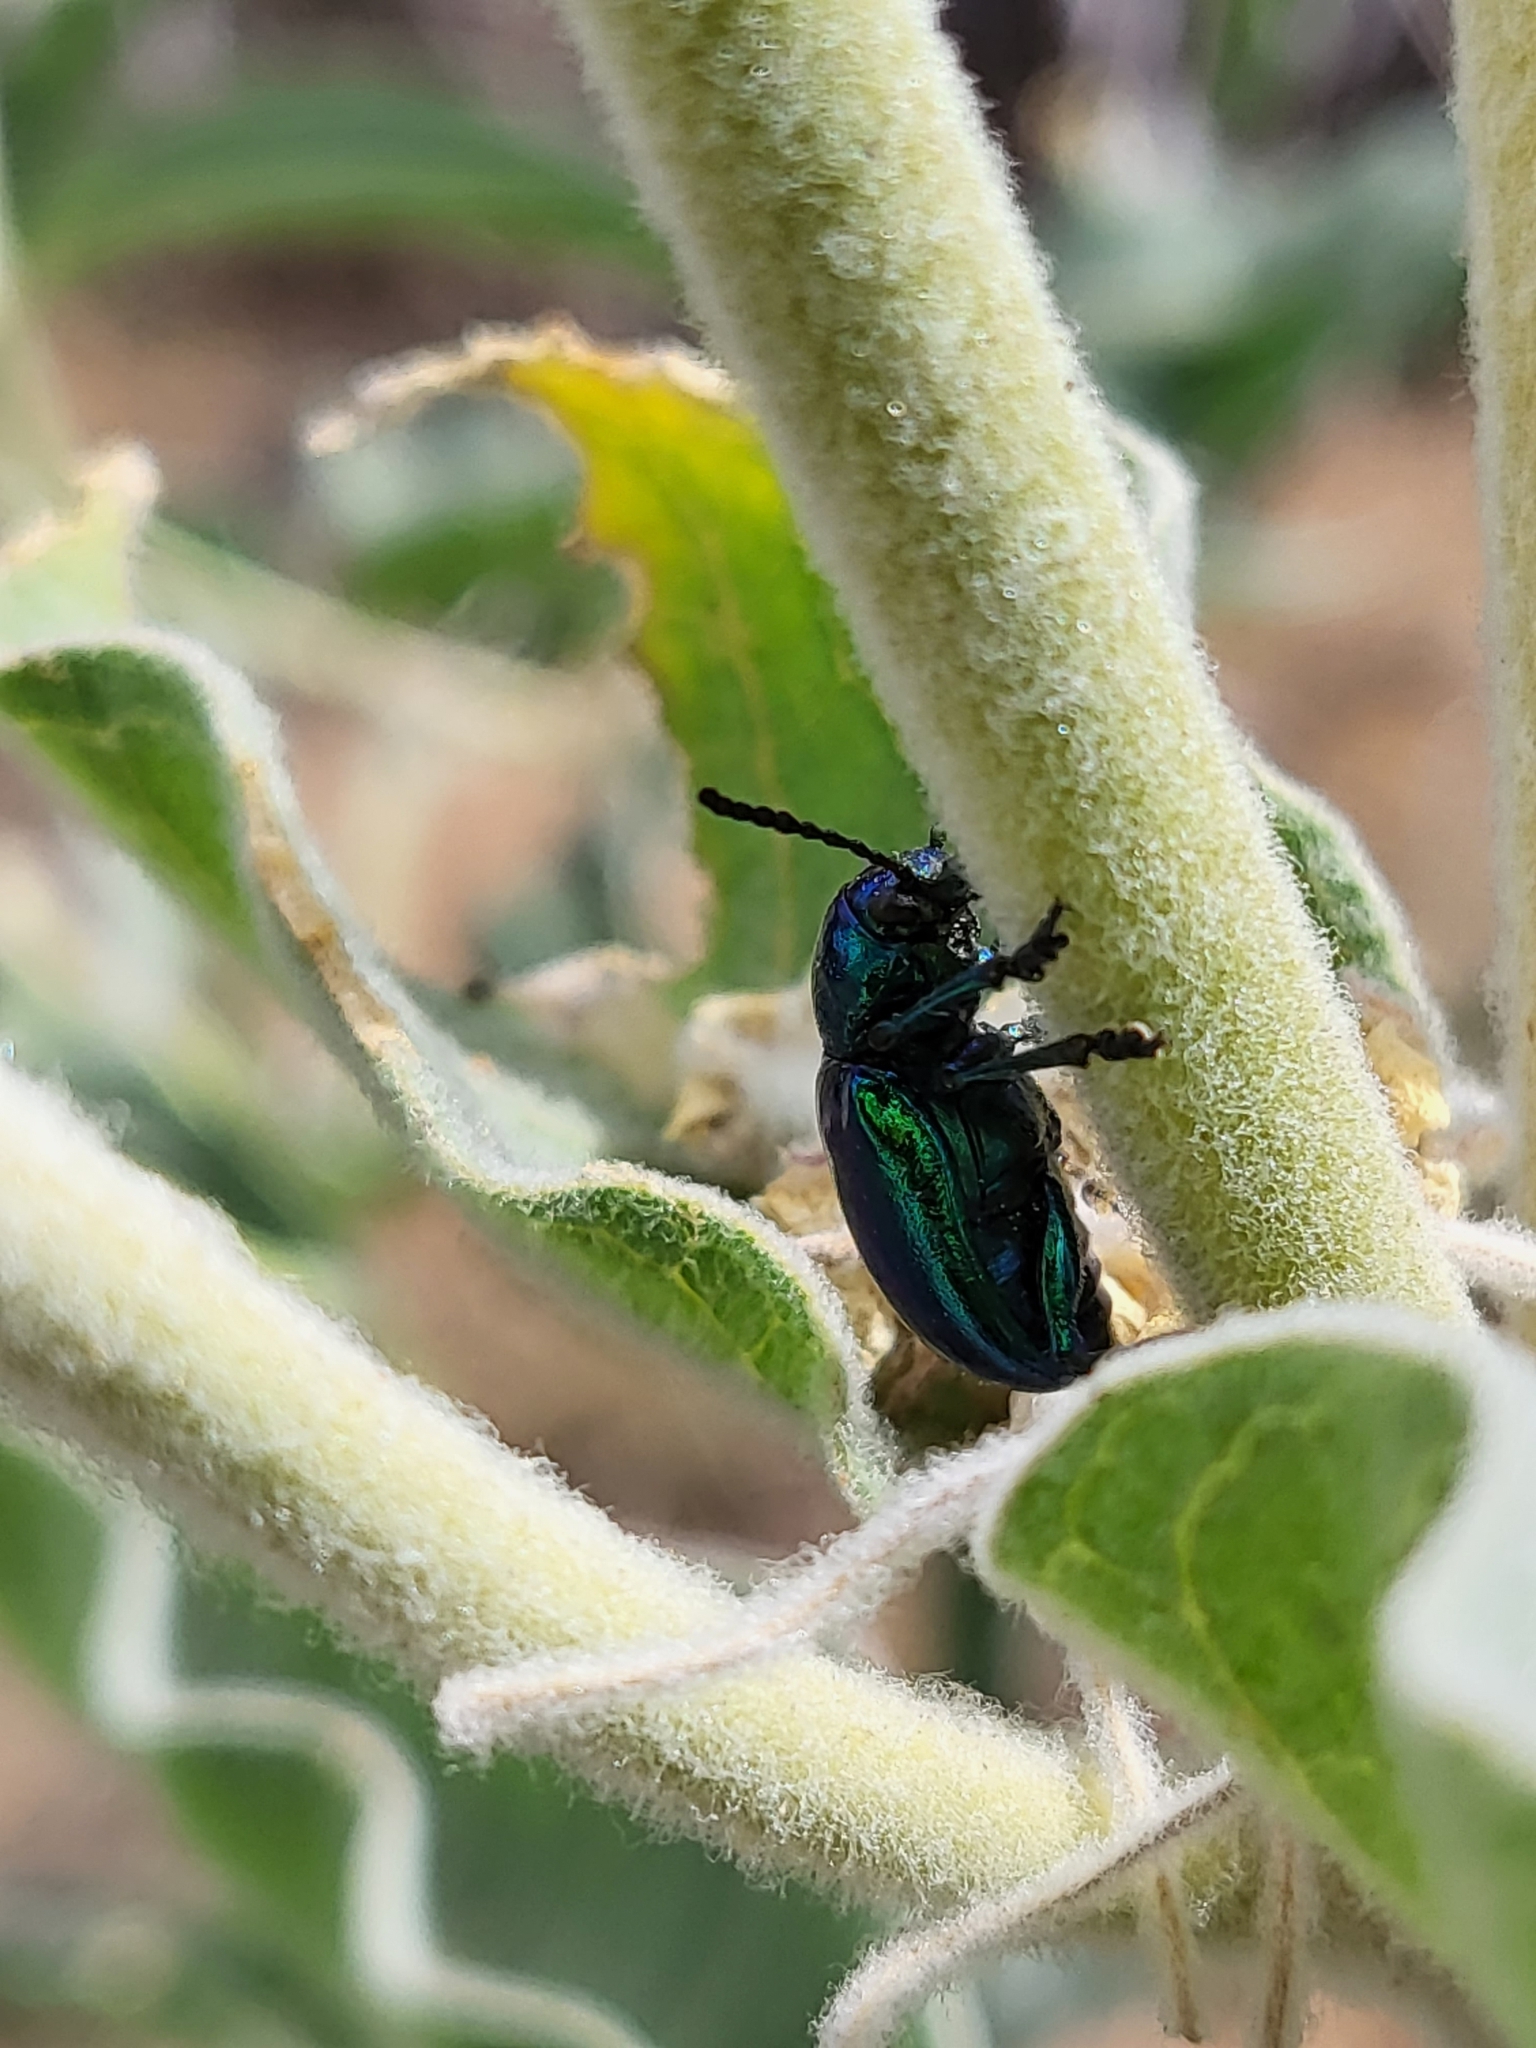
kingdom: Animalia
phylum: Arthropoda
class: Insecta
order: Coleoptera
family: Chrysomelidae
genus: Chrysochus
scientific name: Chrysochus cobaltinus
